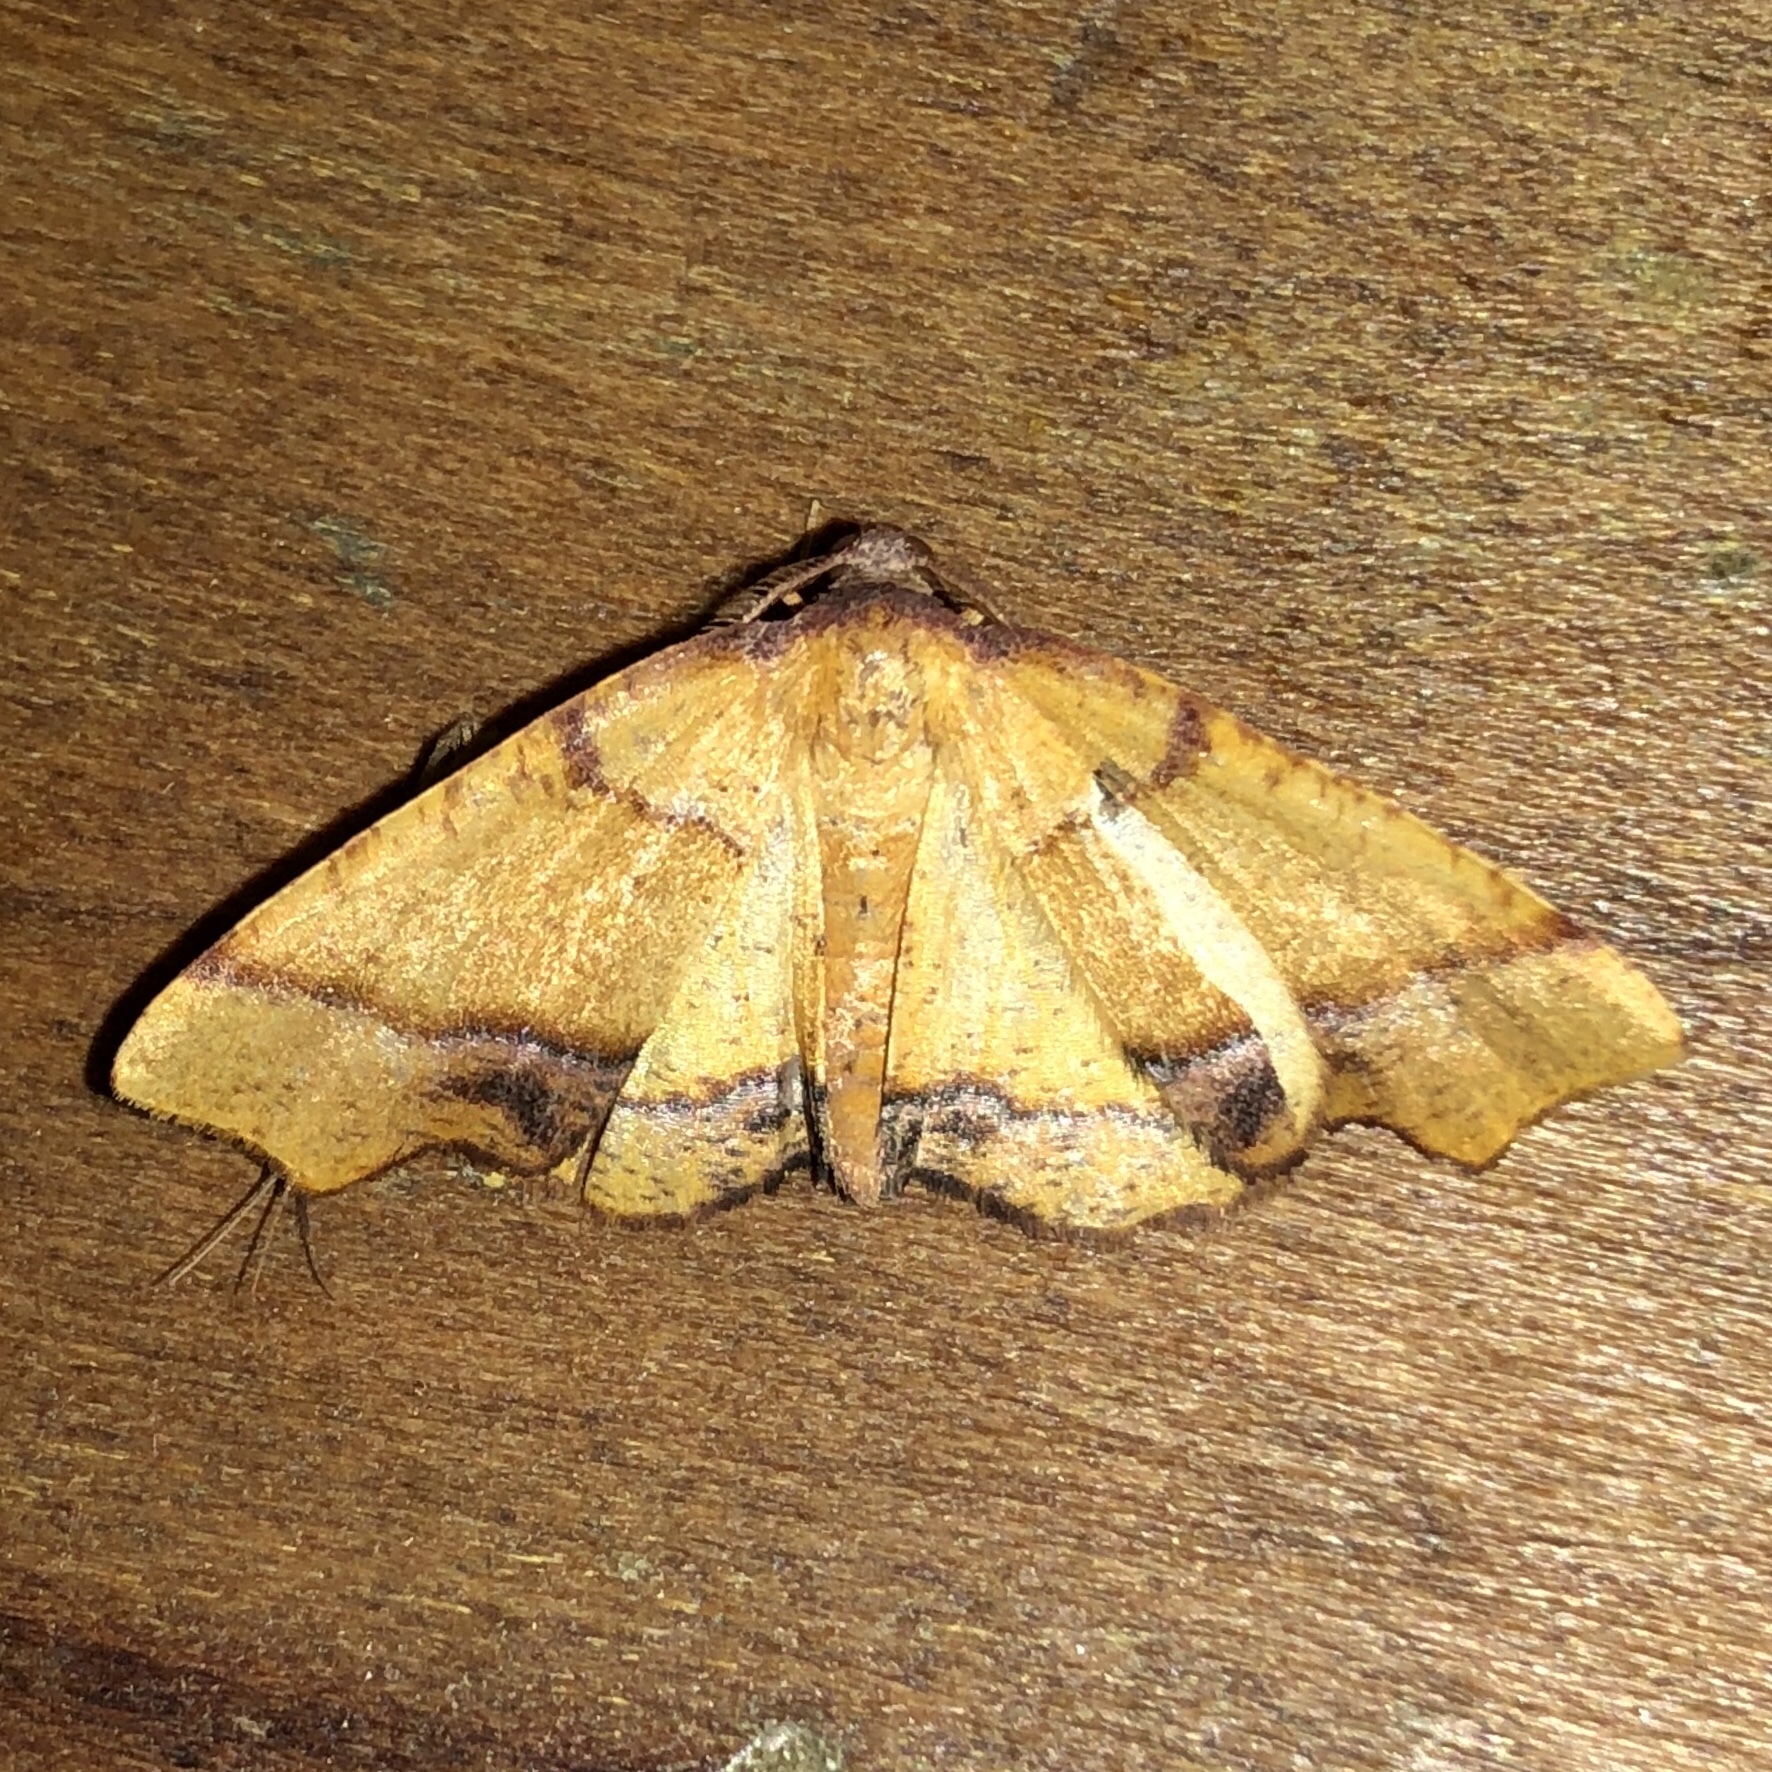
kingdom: Animalia
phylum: Arthropoda
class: Insecta
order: Lepidoptera
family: Geometridae
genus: Plagodis
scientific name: Plagodis phlogosaria
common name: Straight-lined plagodis
